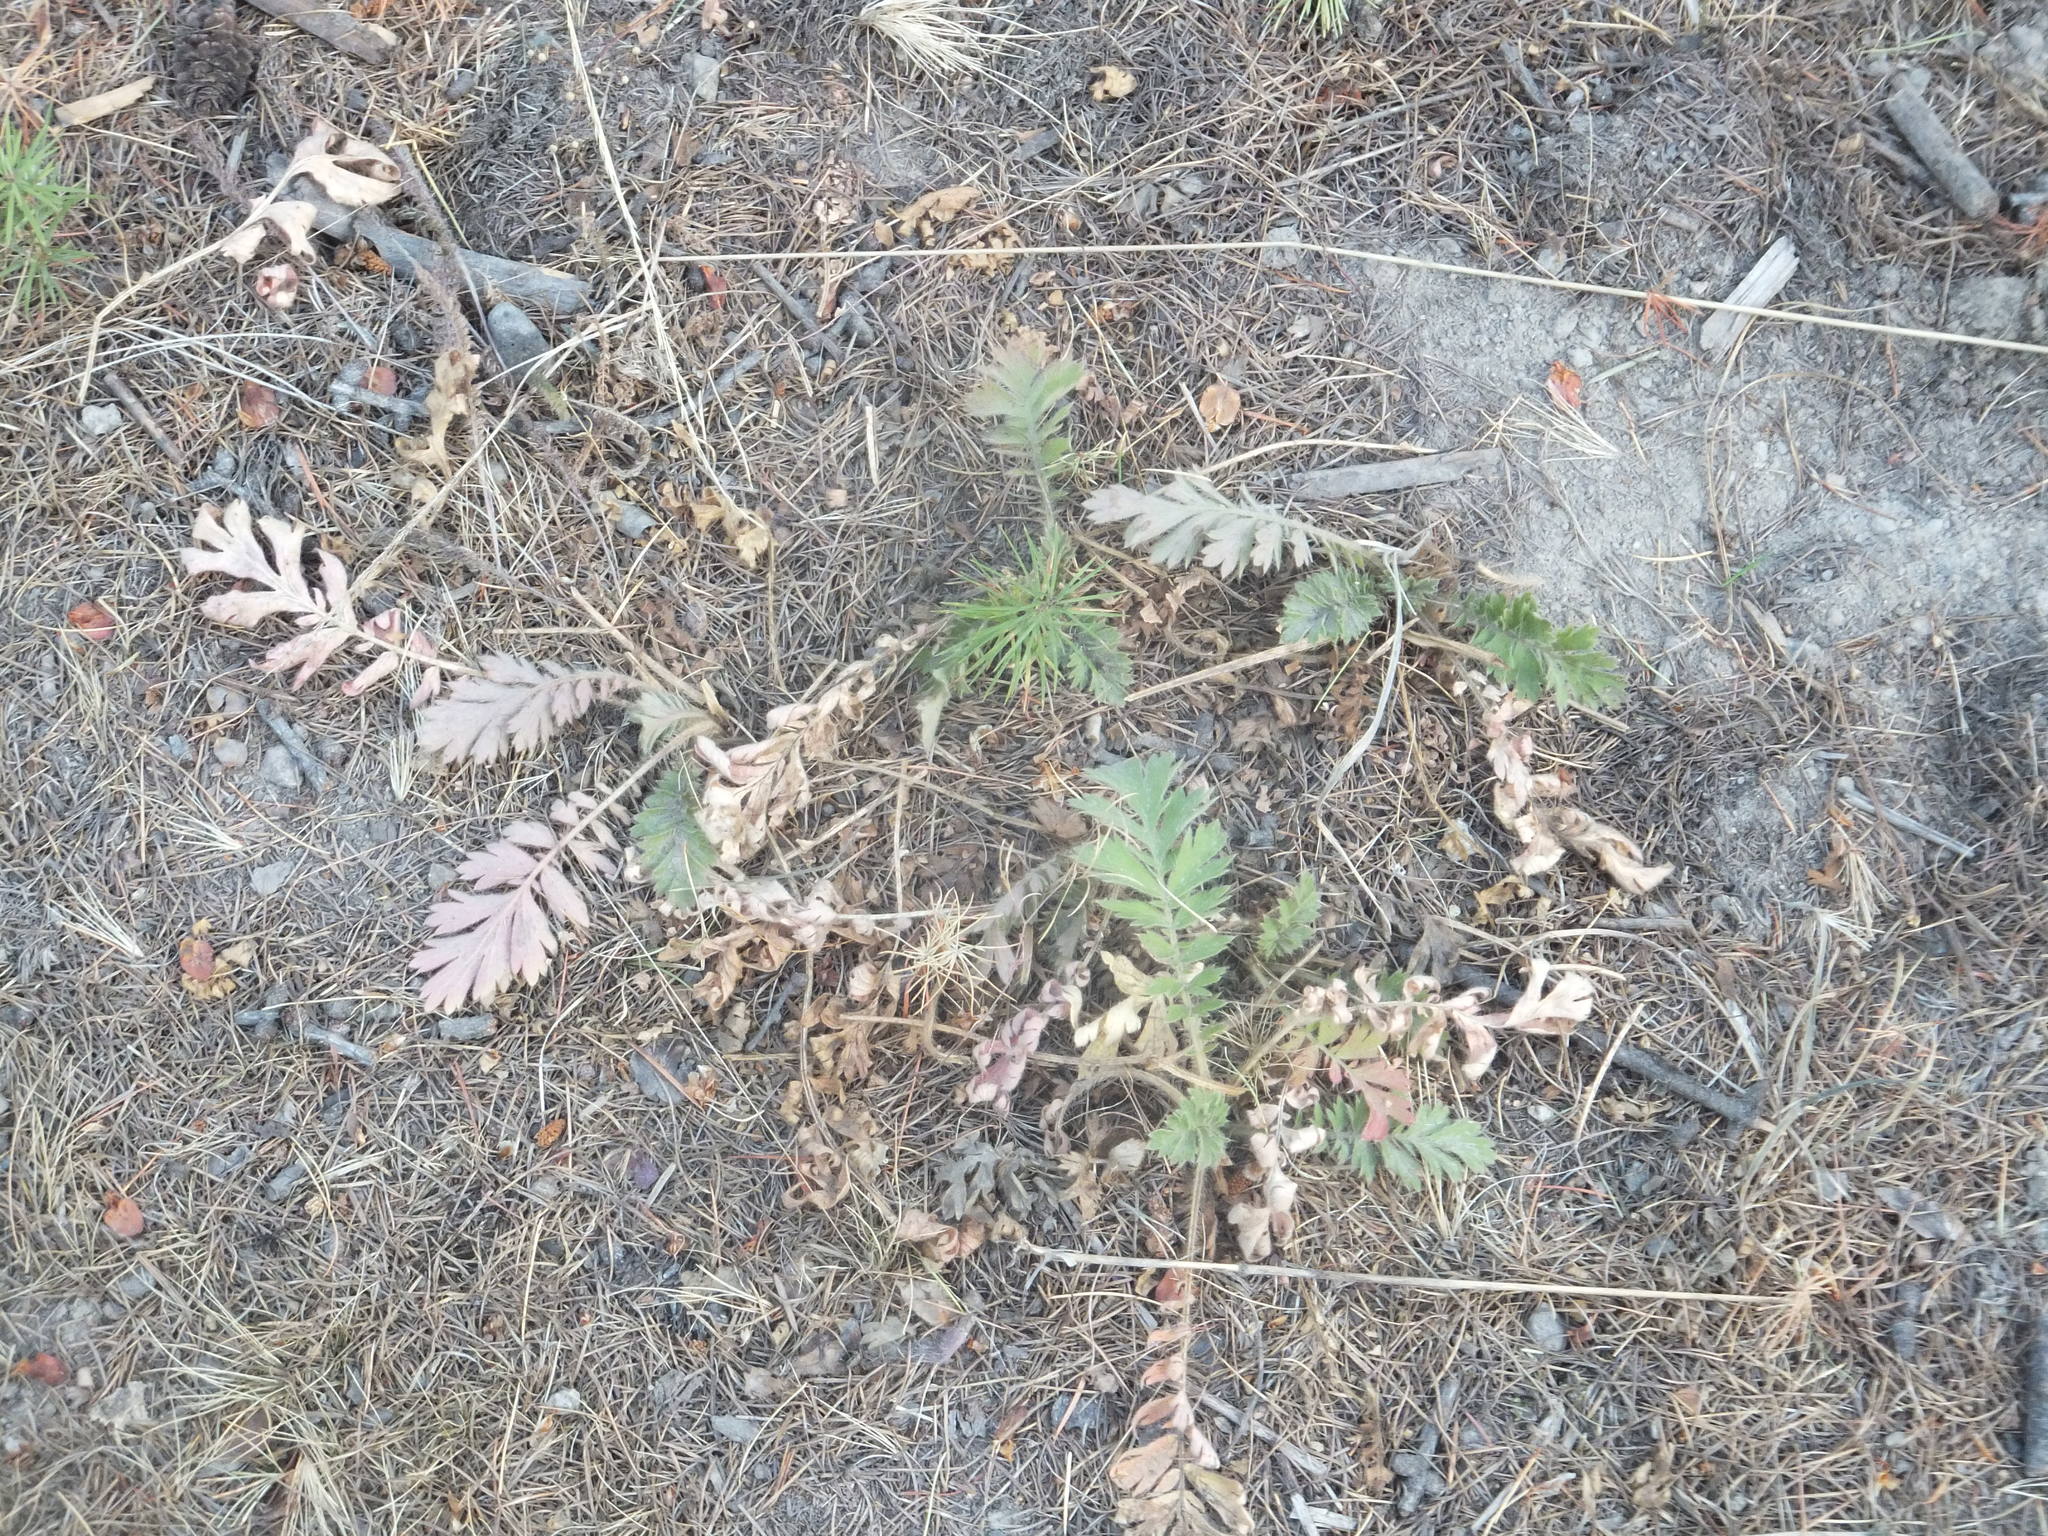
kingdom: Plantae
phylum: Tracheophyta
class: Magnoliopsida
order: Rosales
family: Rosaceae
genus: Geum
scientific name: Geum triflorum
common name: Old man's whiskers
